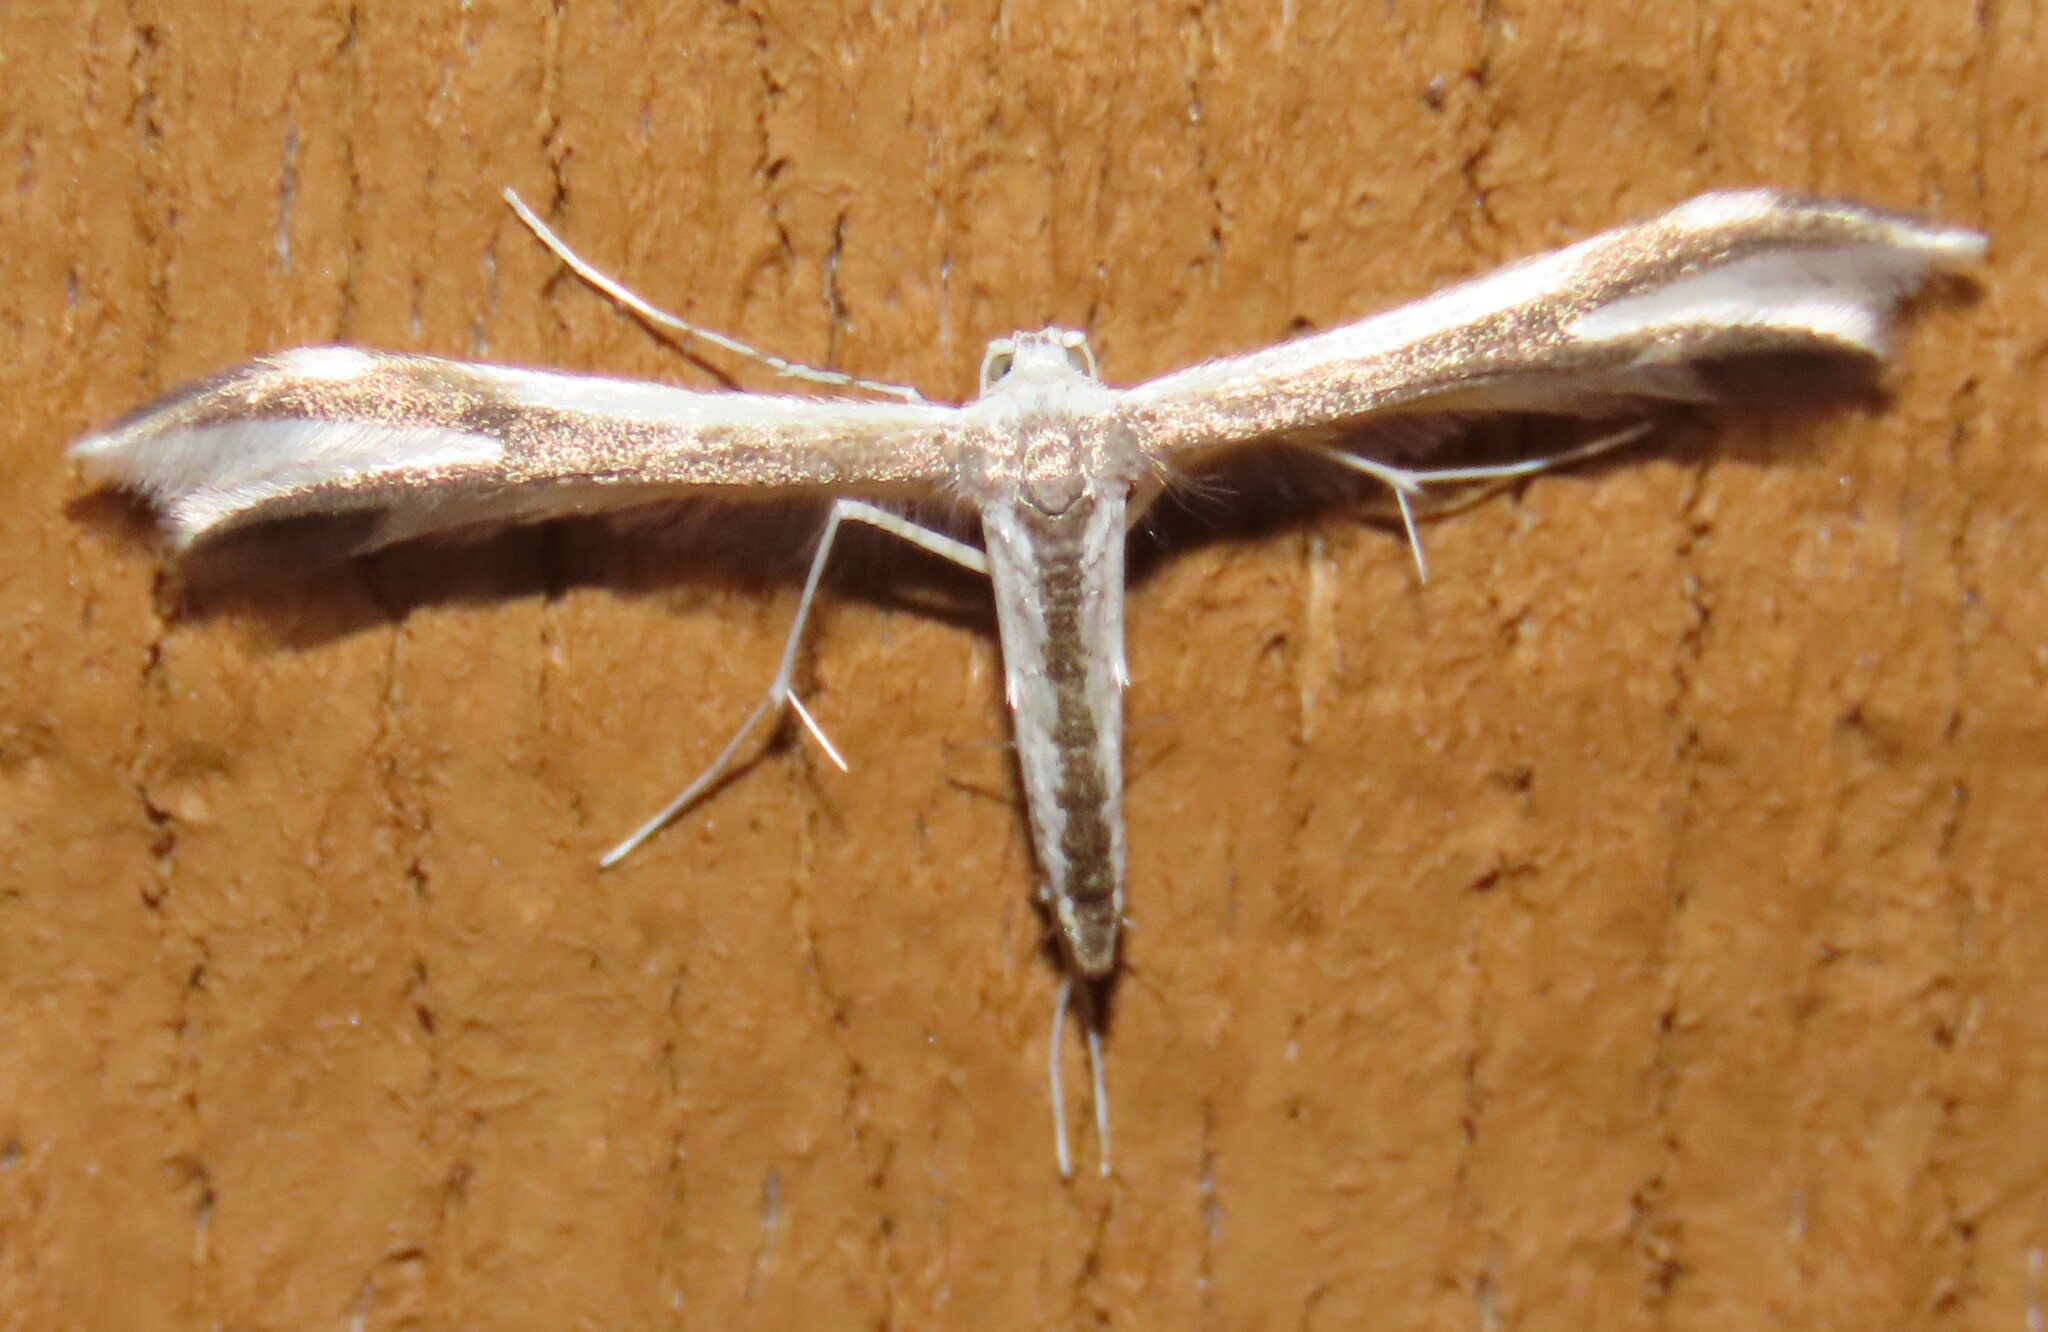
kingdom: Animalia
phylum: Arthropoda
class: Insecta
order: Lepidoptera
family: Pterophoridae
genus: Pterophorus
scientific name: Pterophorus furcatalis
